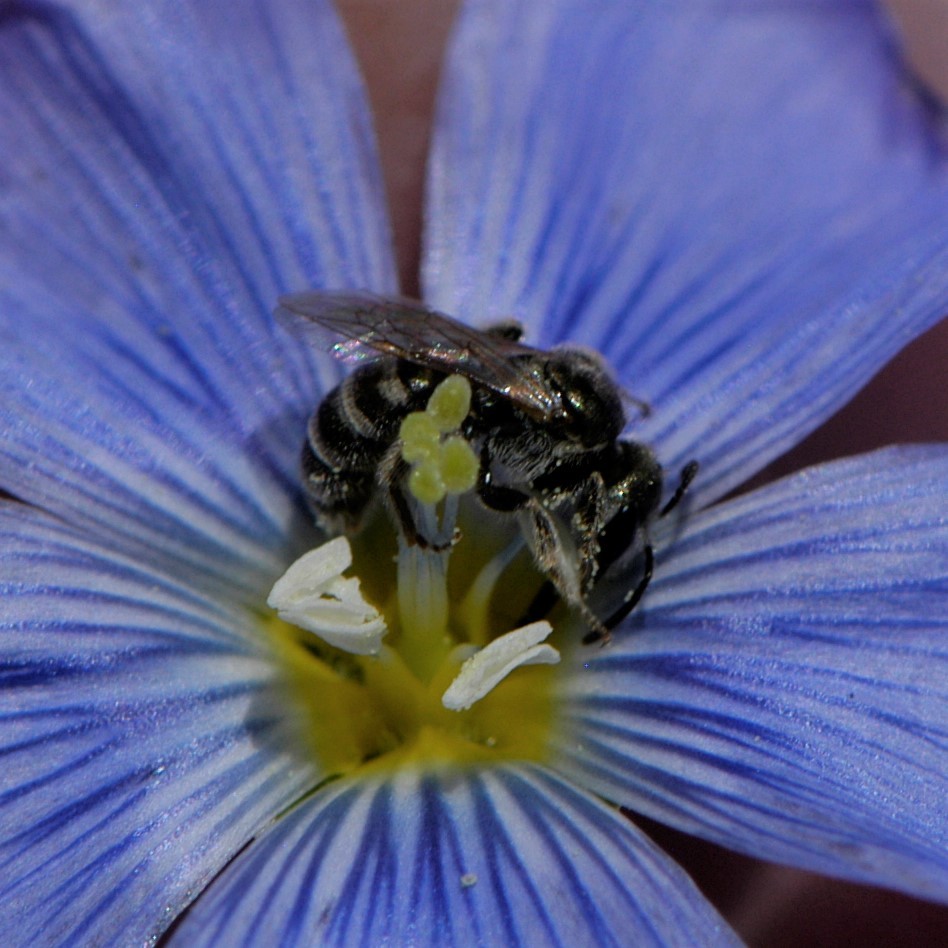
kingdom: Animalia
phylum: Arthropoda
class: Insecta
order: Hymenoptera
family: Halictidae
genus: Halictus
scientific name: Halictus tripartitus
